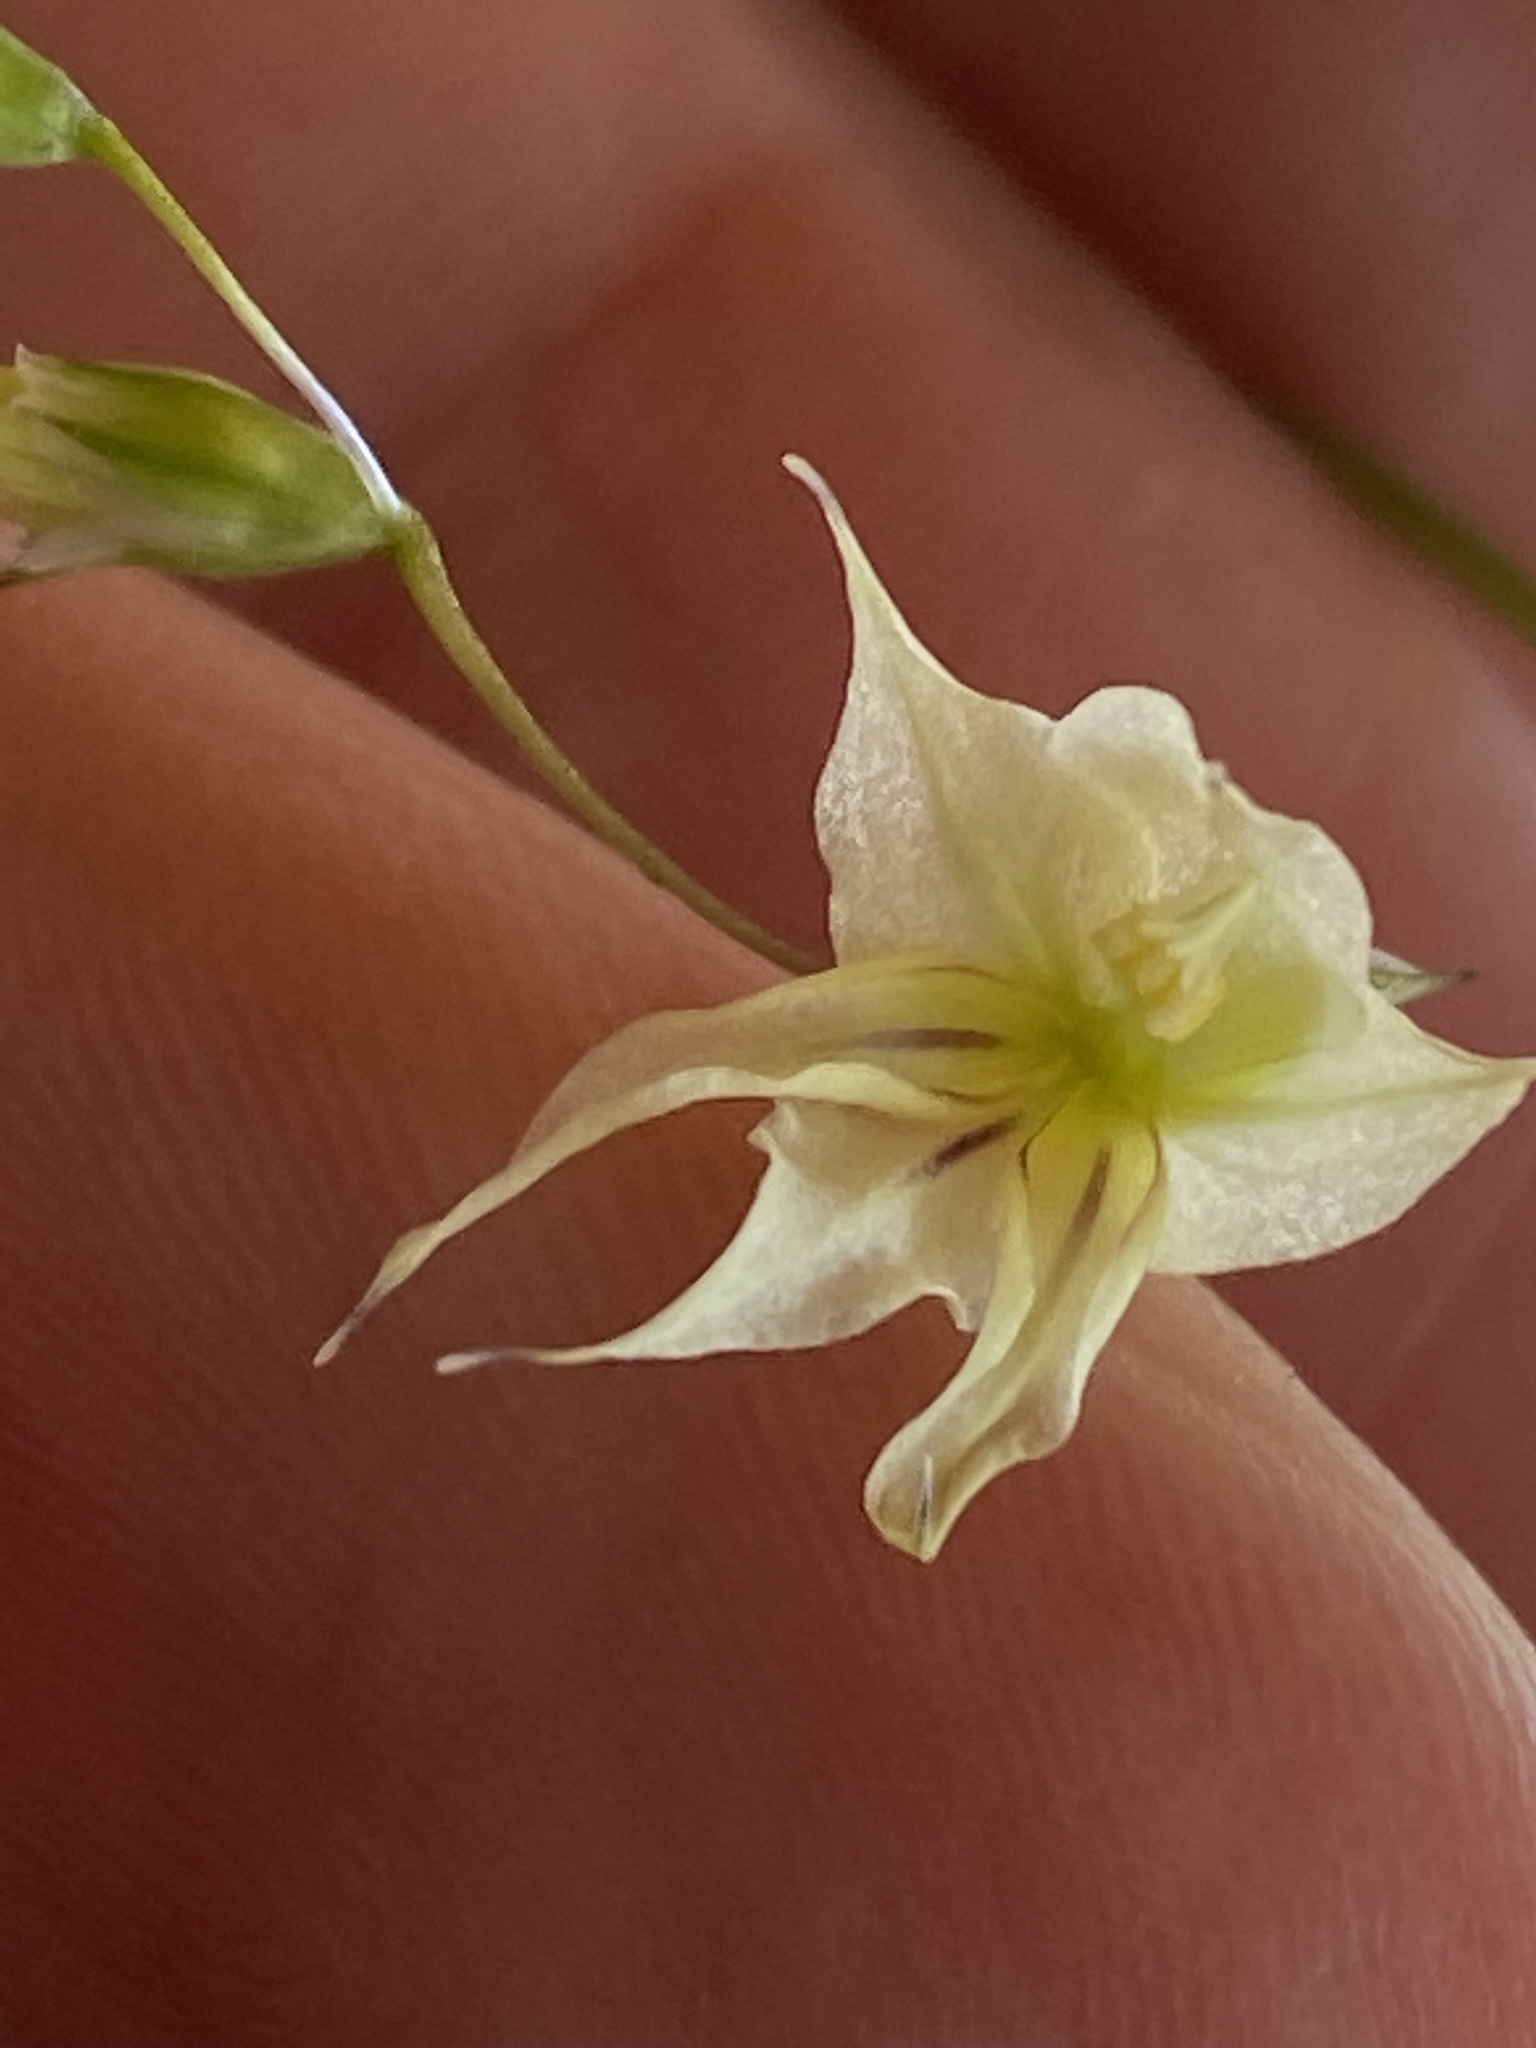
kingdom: Plantae
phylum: Tracheophyta
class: Liliopsida
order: Asparagales
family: Iridaceae
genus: Melasphaerula
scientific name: Melasphaerula graminea
